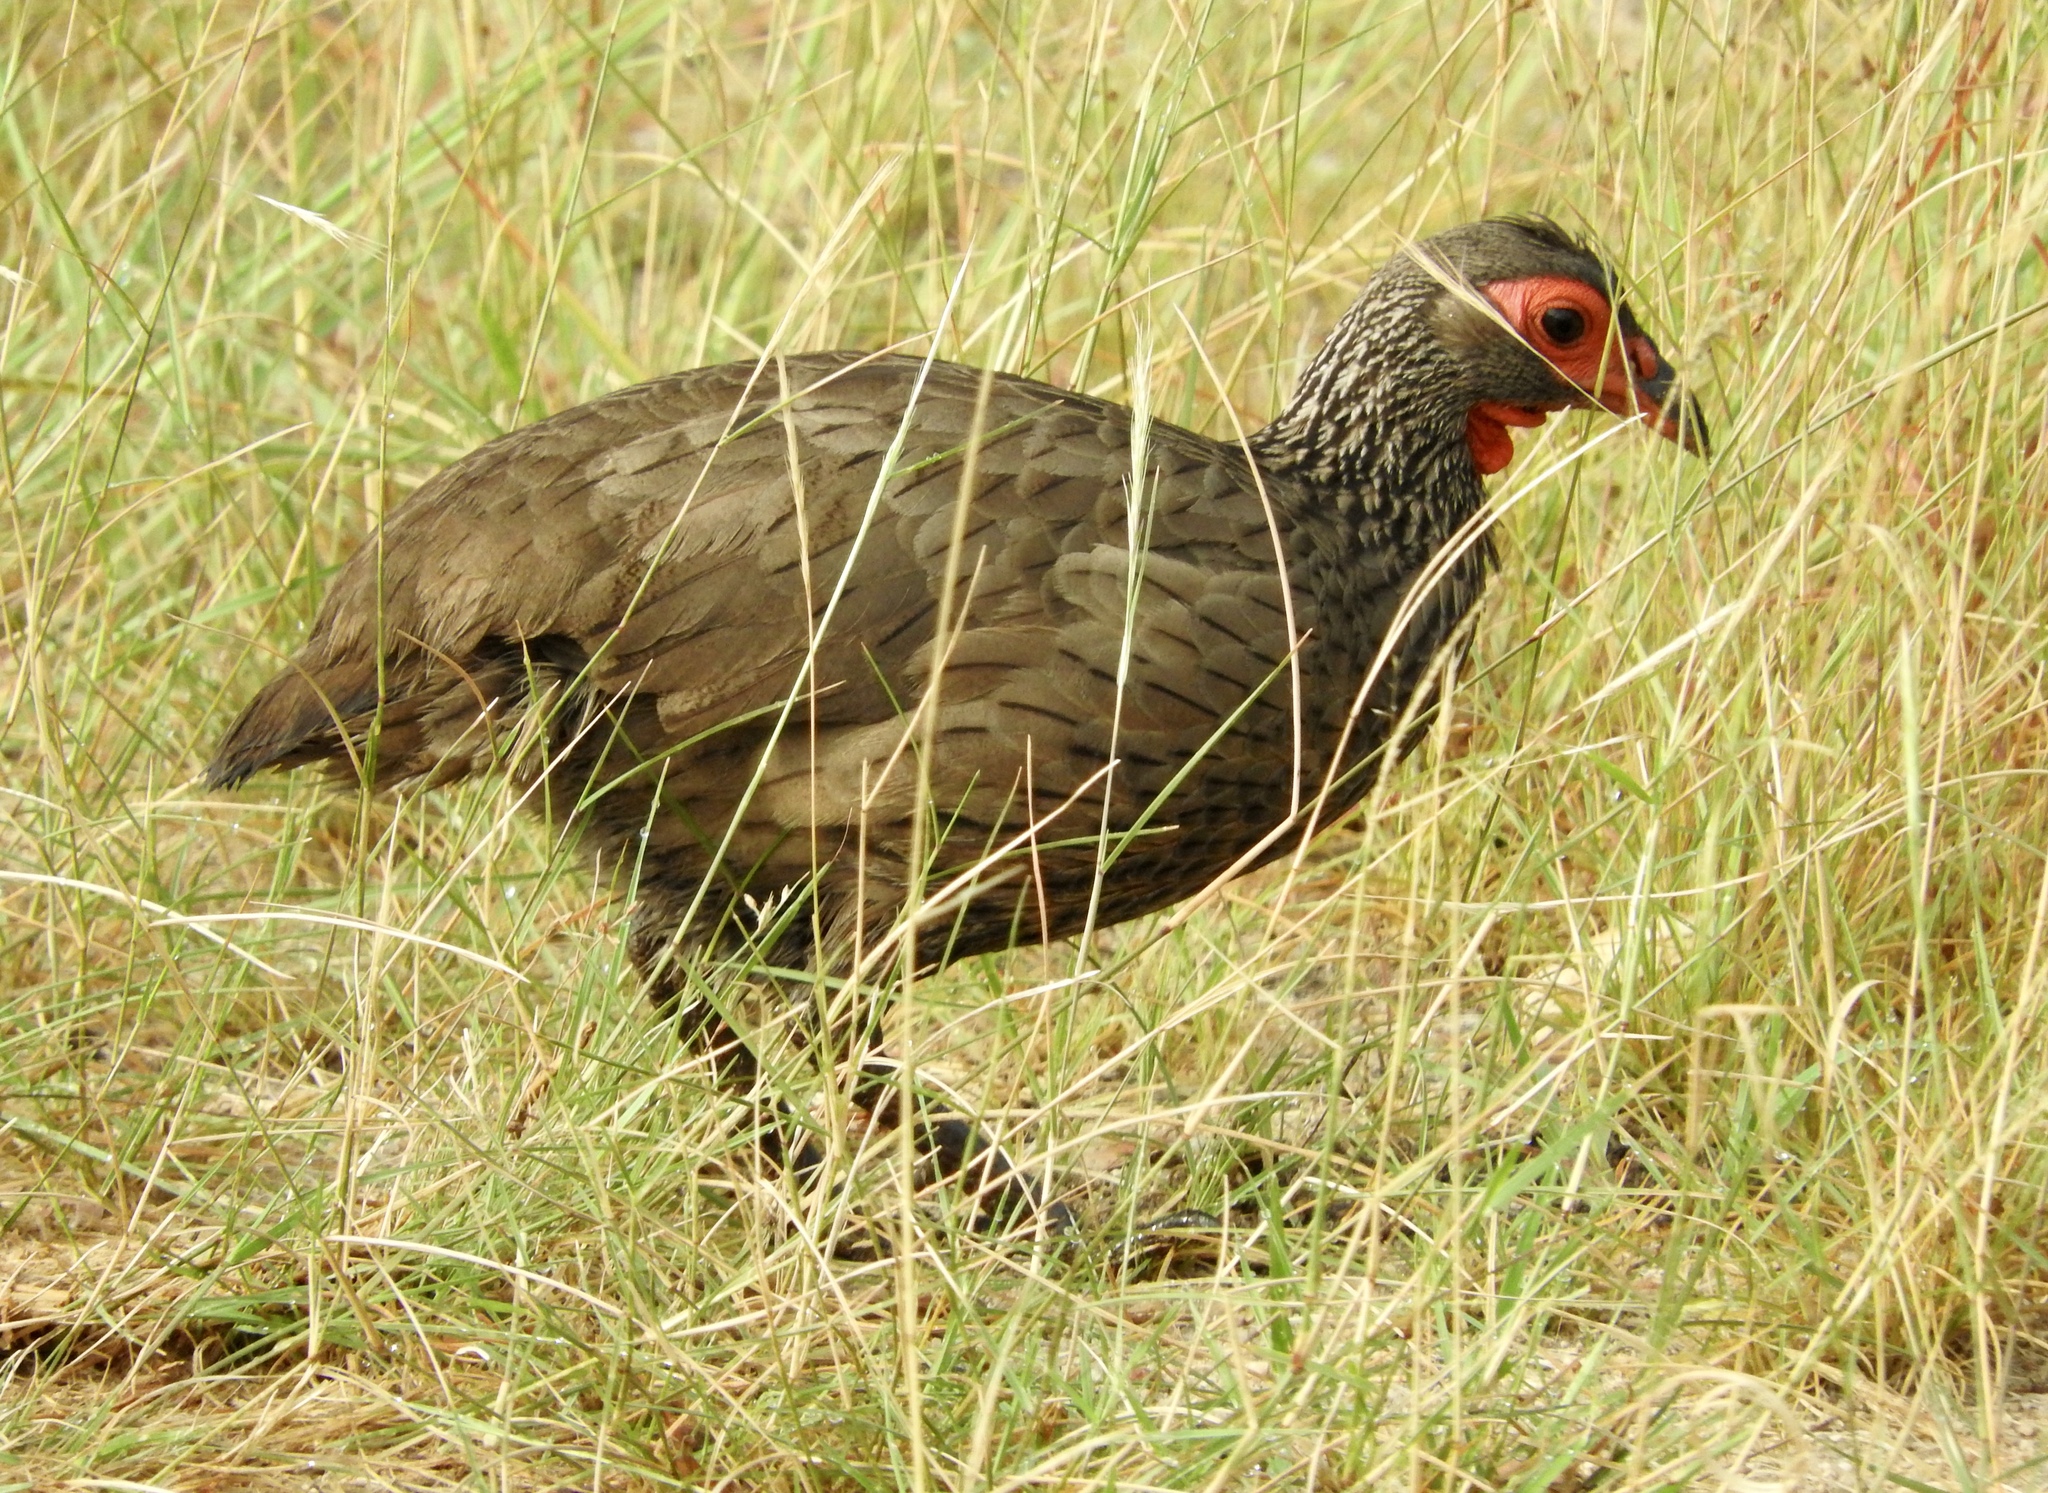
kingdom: Animalia
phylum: Chordata
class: Aves
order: Galliformes
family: Phasianidae
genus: Pternistis
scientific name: Pternistis swainsonii
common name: Swainson's spurfowl
